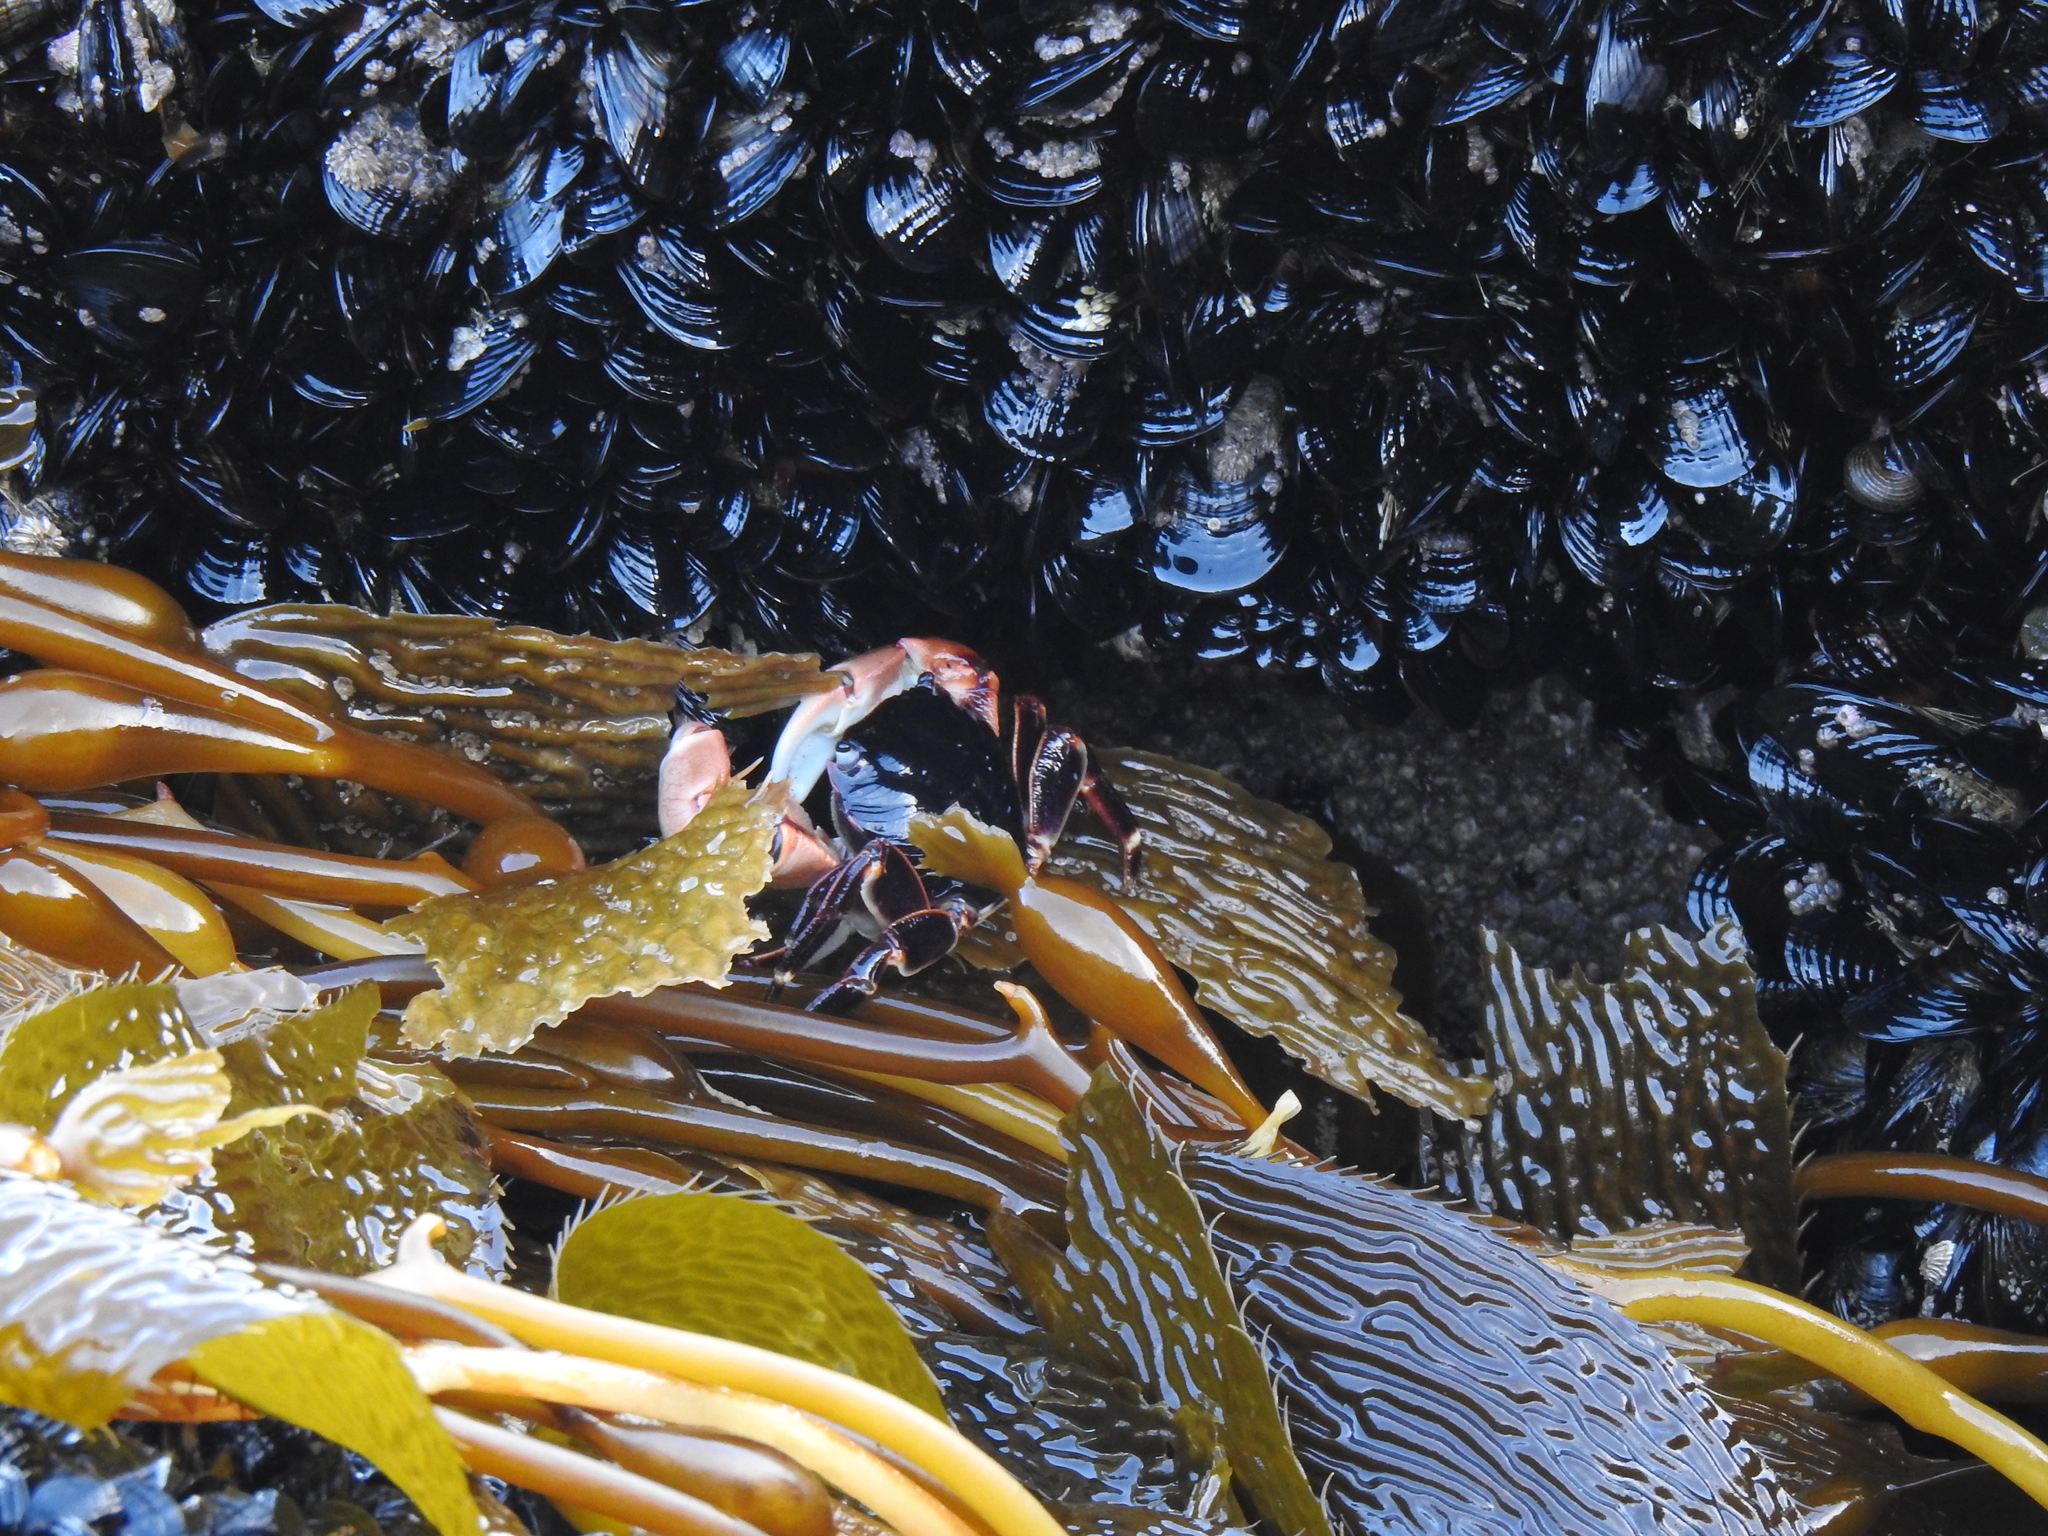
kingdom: Animalia
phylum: Arthropoda
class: Malacostraca
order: Decapoda
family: Grapsidae
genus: Pachygrapsus
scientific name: Pachygrapsus crassipes
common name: Striped shore crab
